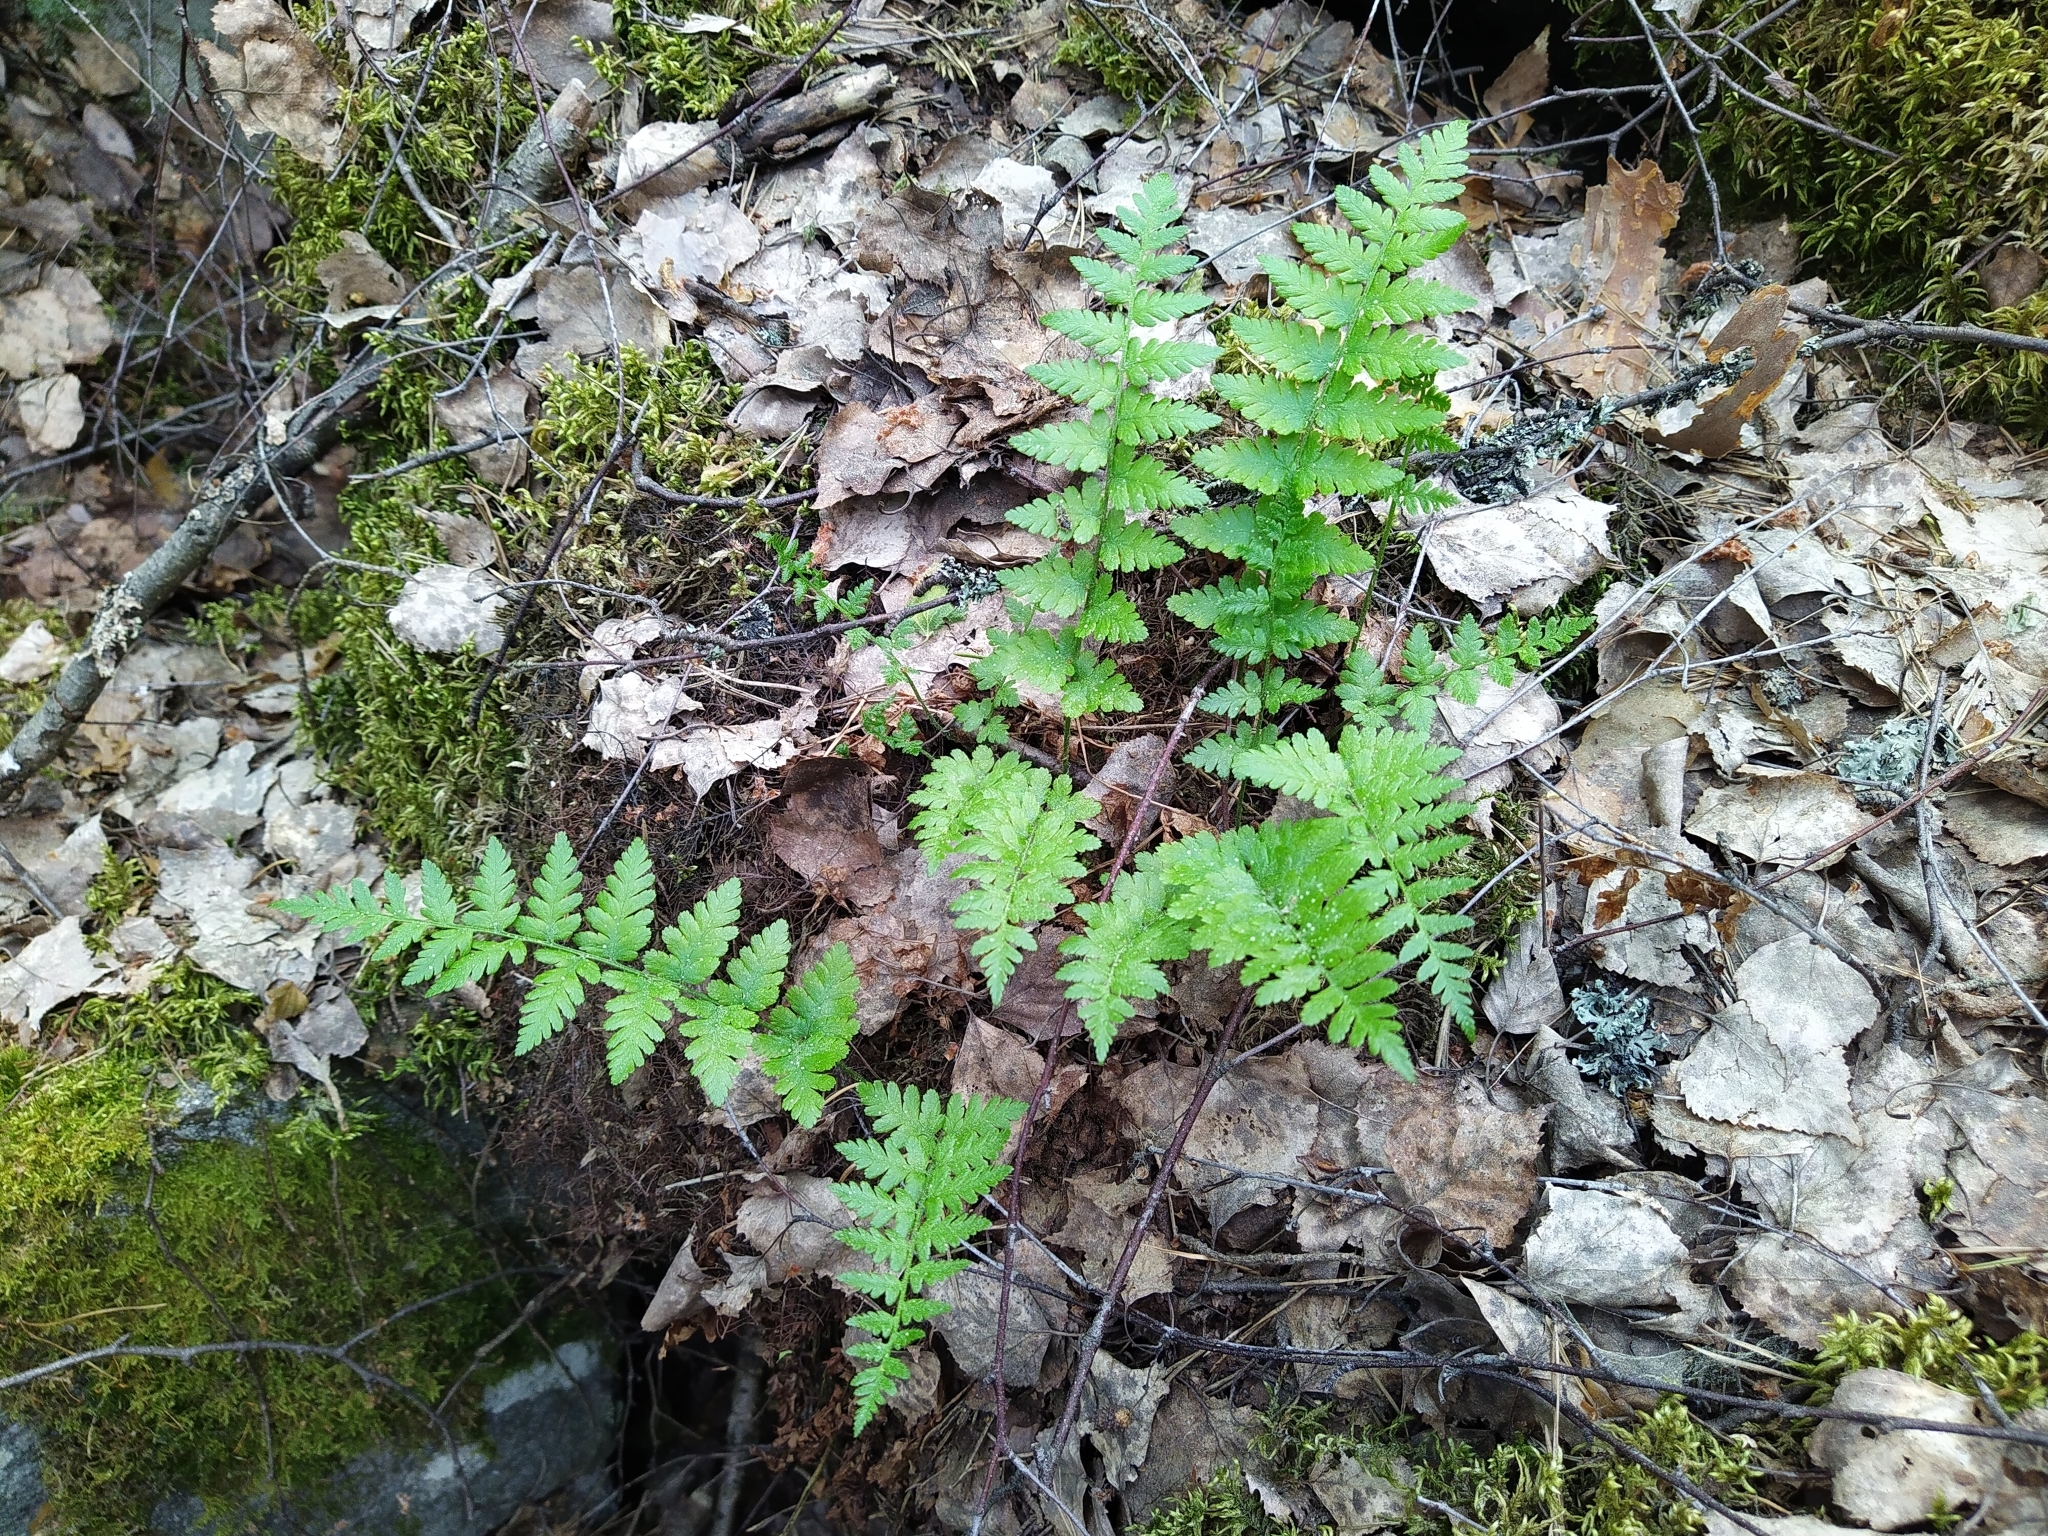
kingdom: Plantae
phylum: Tracheophyta
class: Polypodiopsida
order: Polypodiales
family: Cystopteridaceae
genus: Cystopteris
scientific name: Cystopteris fragilis
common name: Brittle bladder fern
